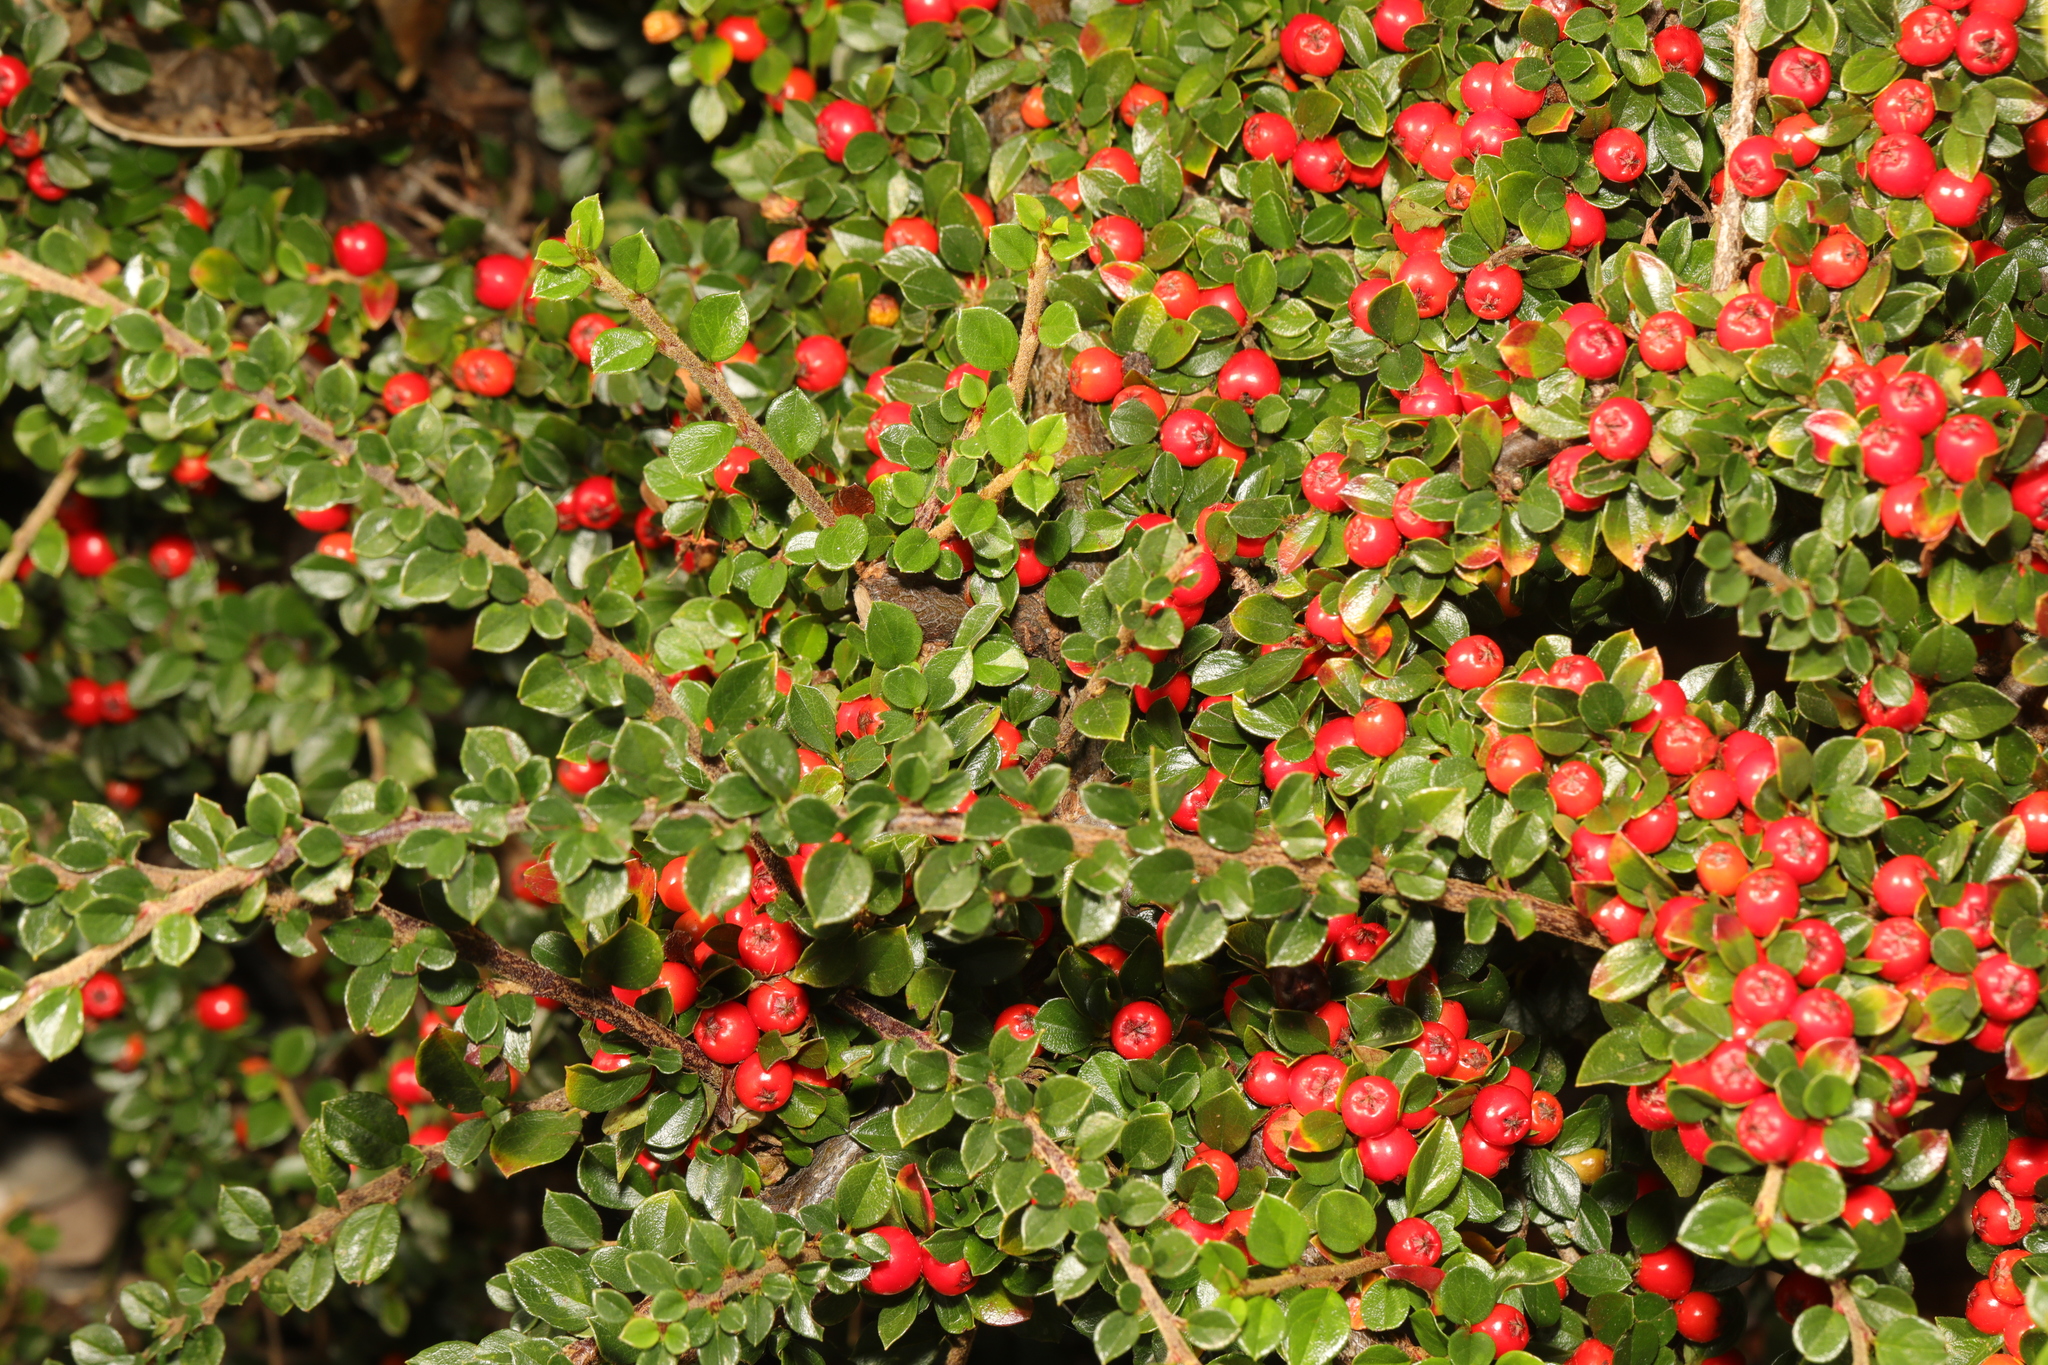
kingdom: Plantae
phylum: Tracheophyta
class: Magnoliopsida
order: Rosales
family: Rosaceae
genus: Cotoneaster
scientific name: Cotoneaster horizontalis
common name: Wall cotoneaster
